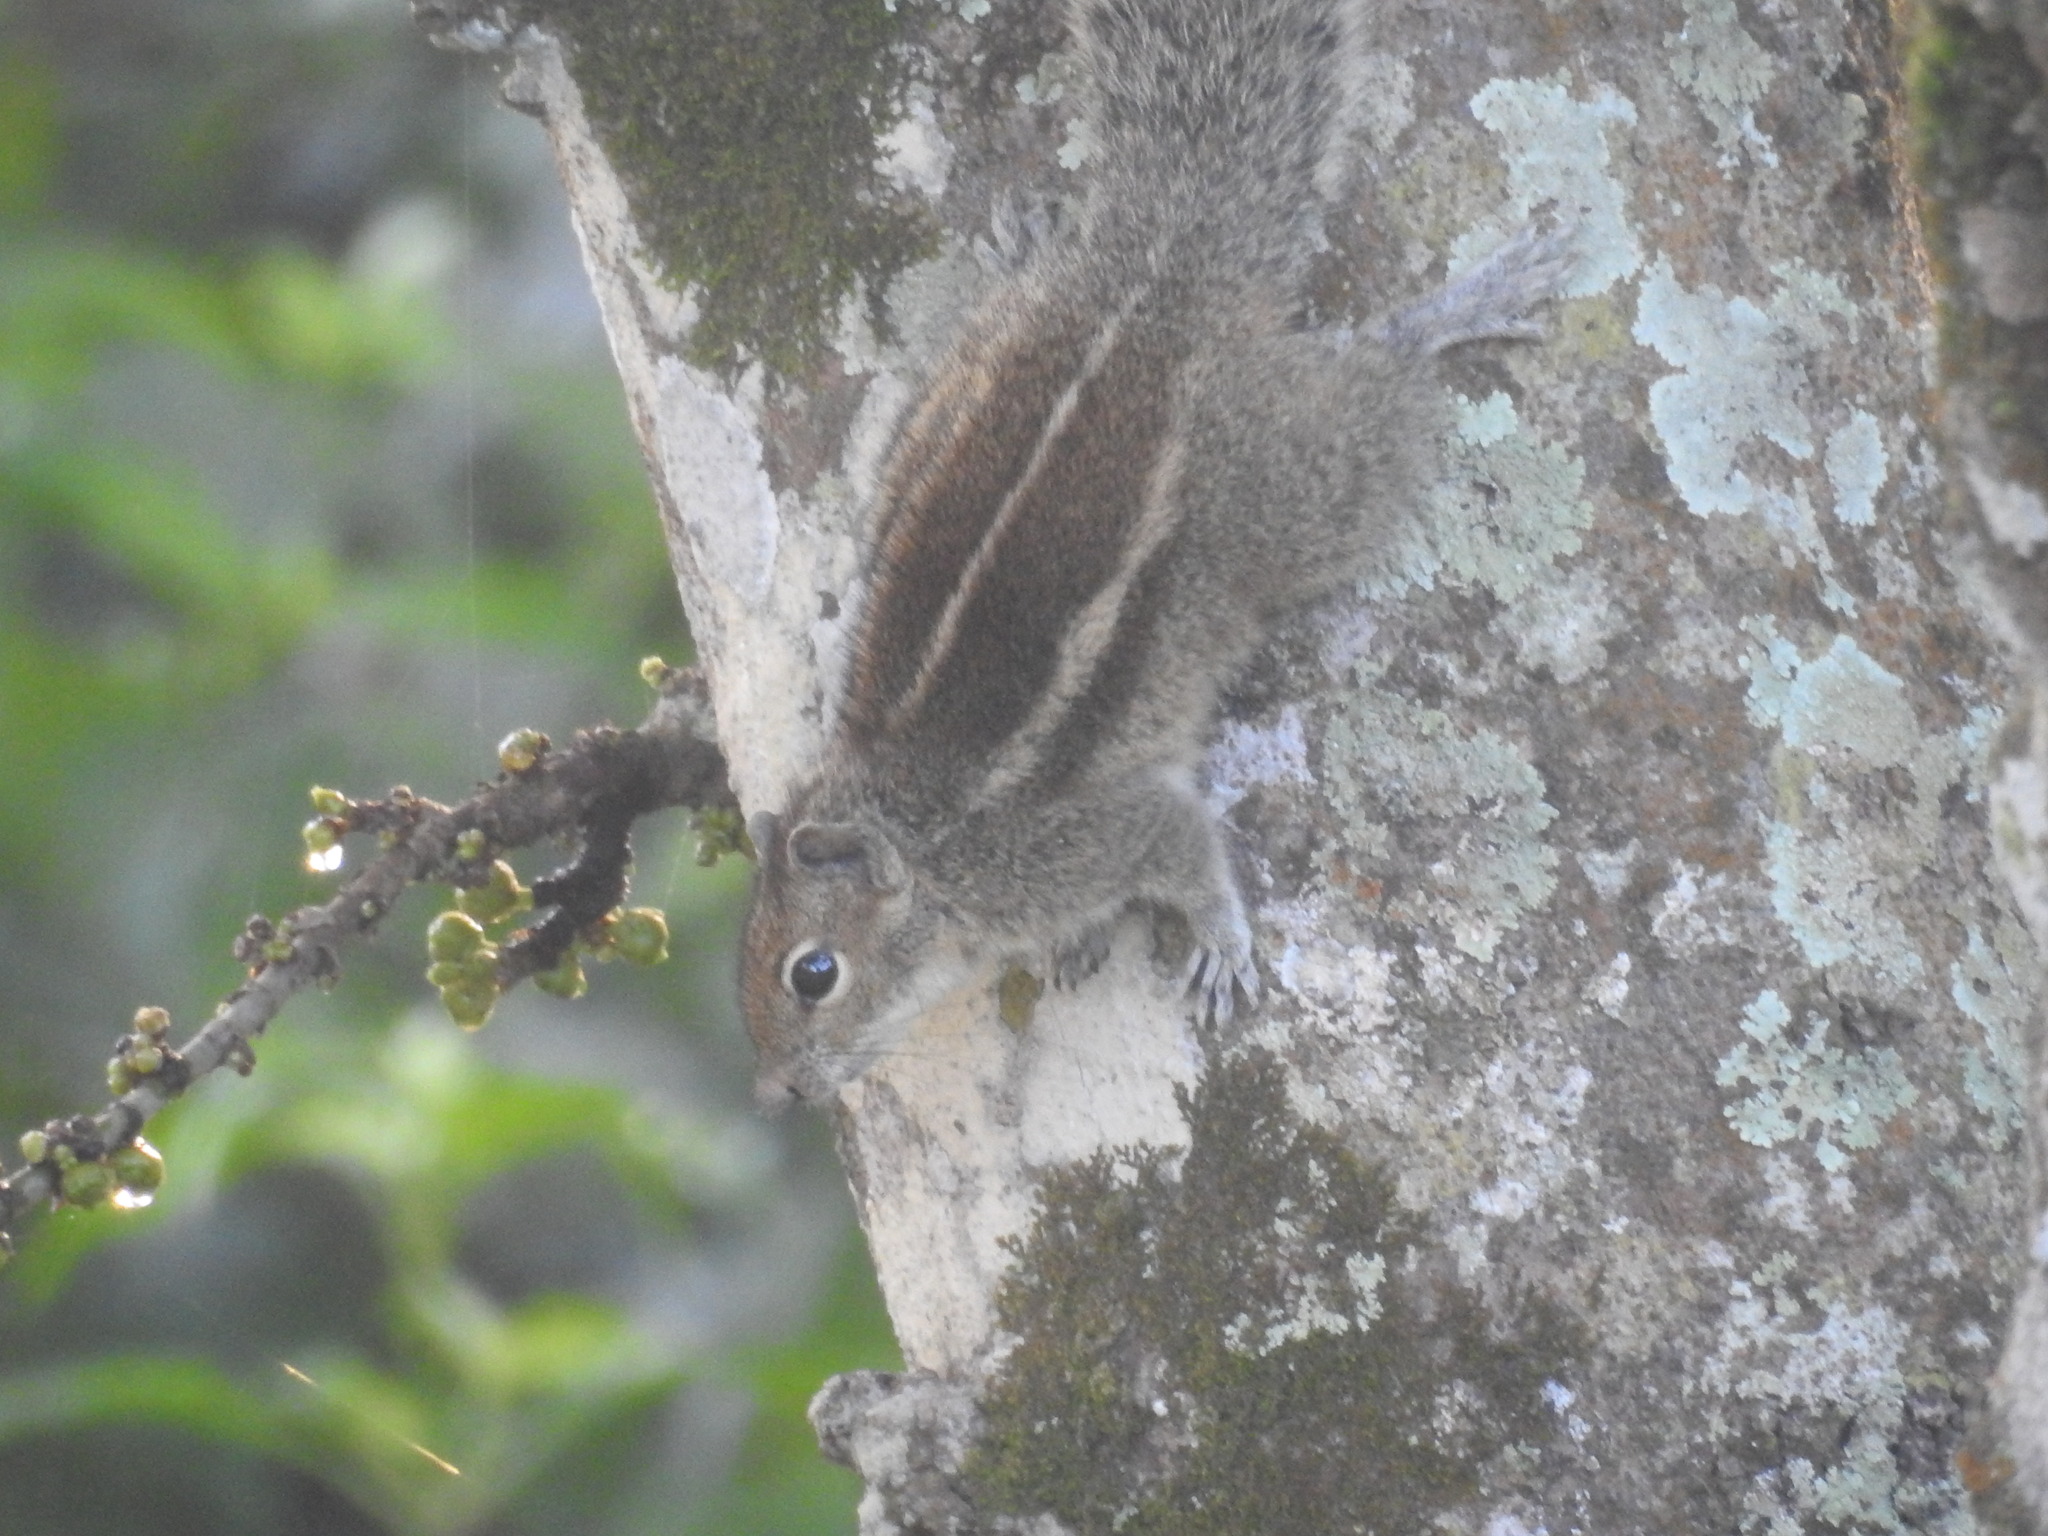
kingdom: Animalia
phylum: Chordata
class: Mammalia
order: Rodentia
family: Sciuridae
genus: Funambulus
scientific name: Funambulus palmarum
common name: Indian palm squirrel
